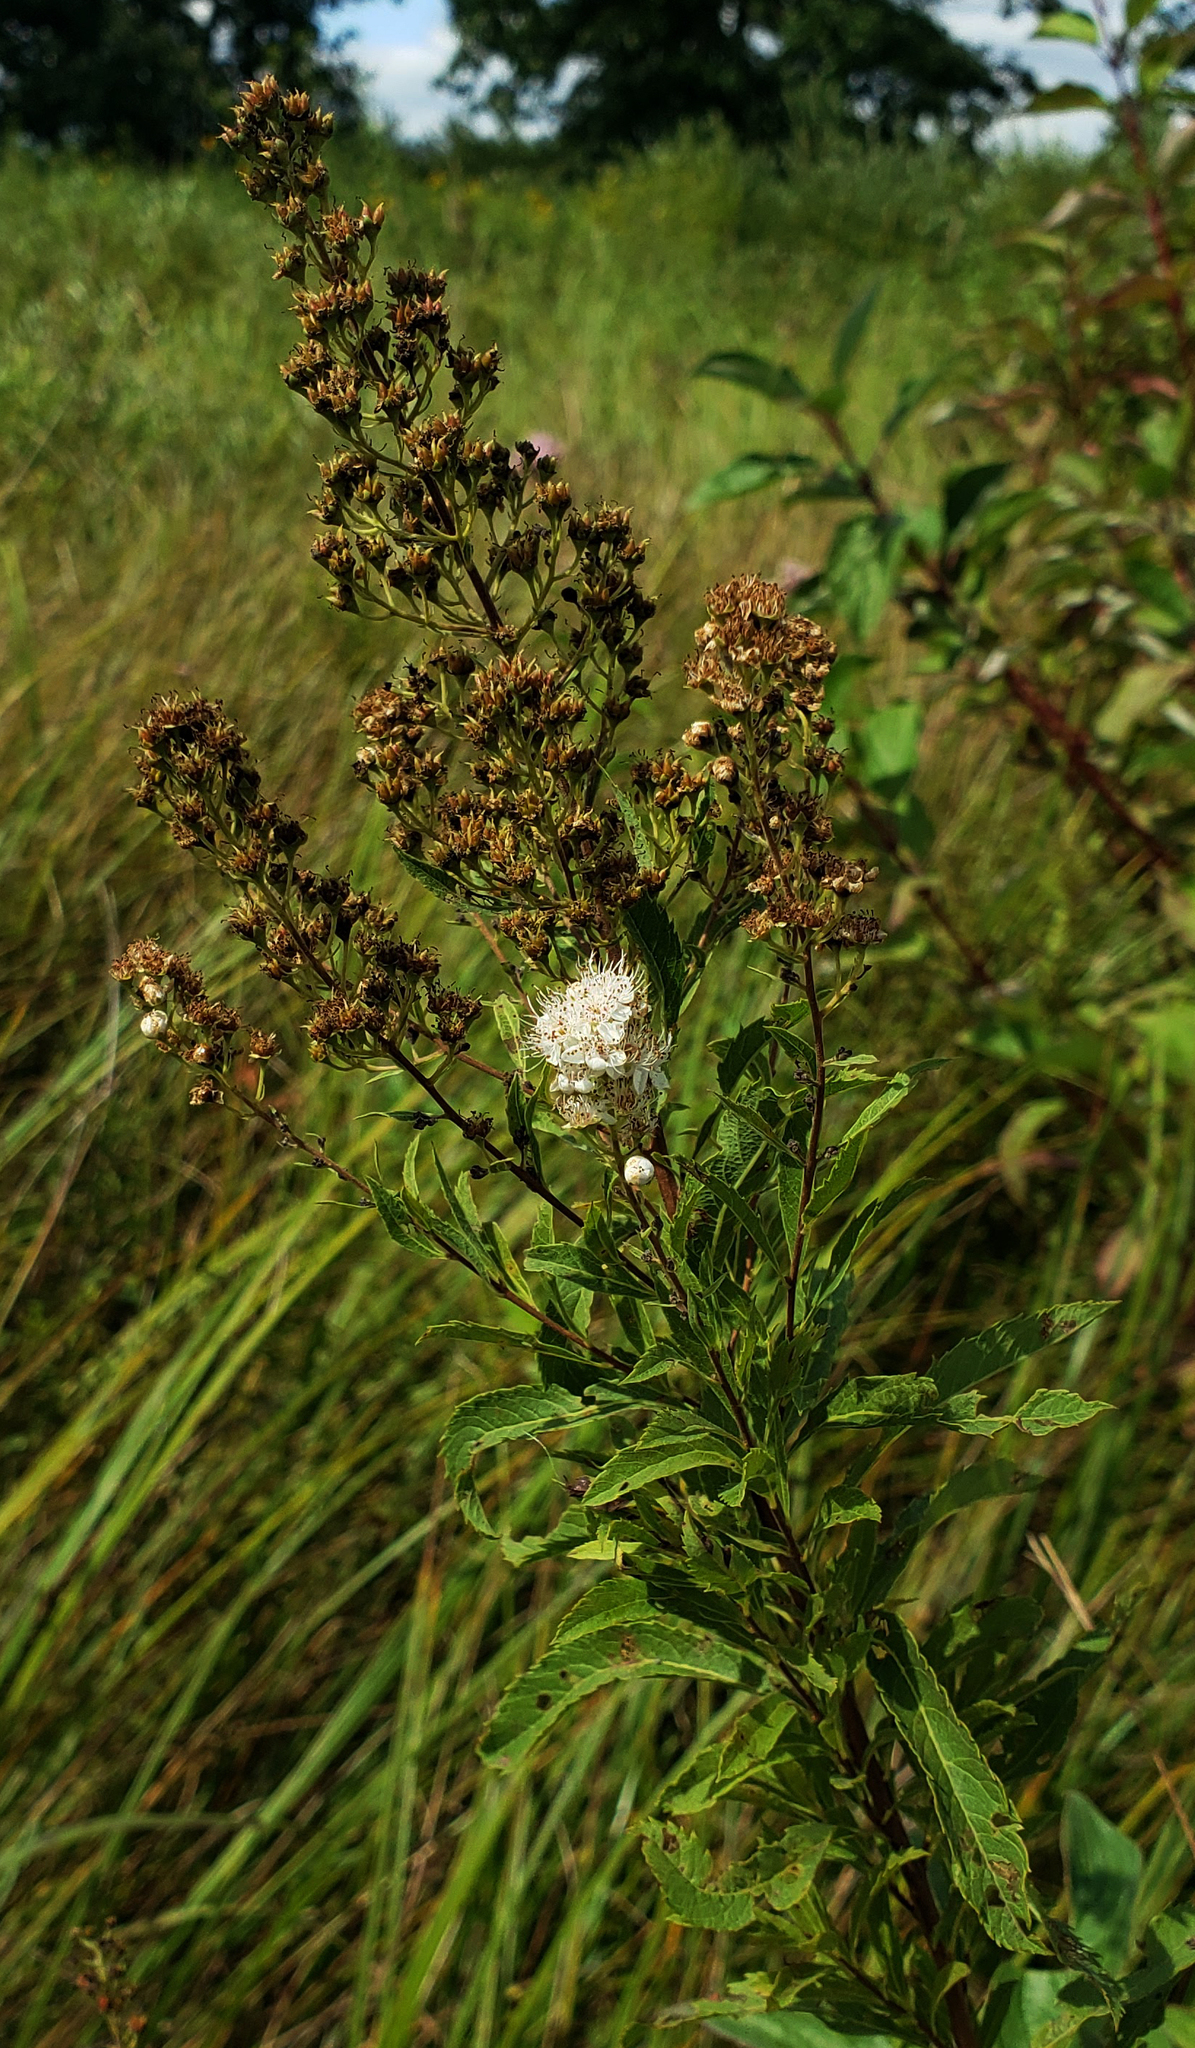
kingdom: Plantae
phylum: Tracheophyta
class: Magnoliopsida
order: Rosales
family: Rosaceae
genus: Spiraea
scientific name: Spiraea alba
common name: Pale bridewort
